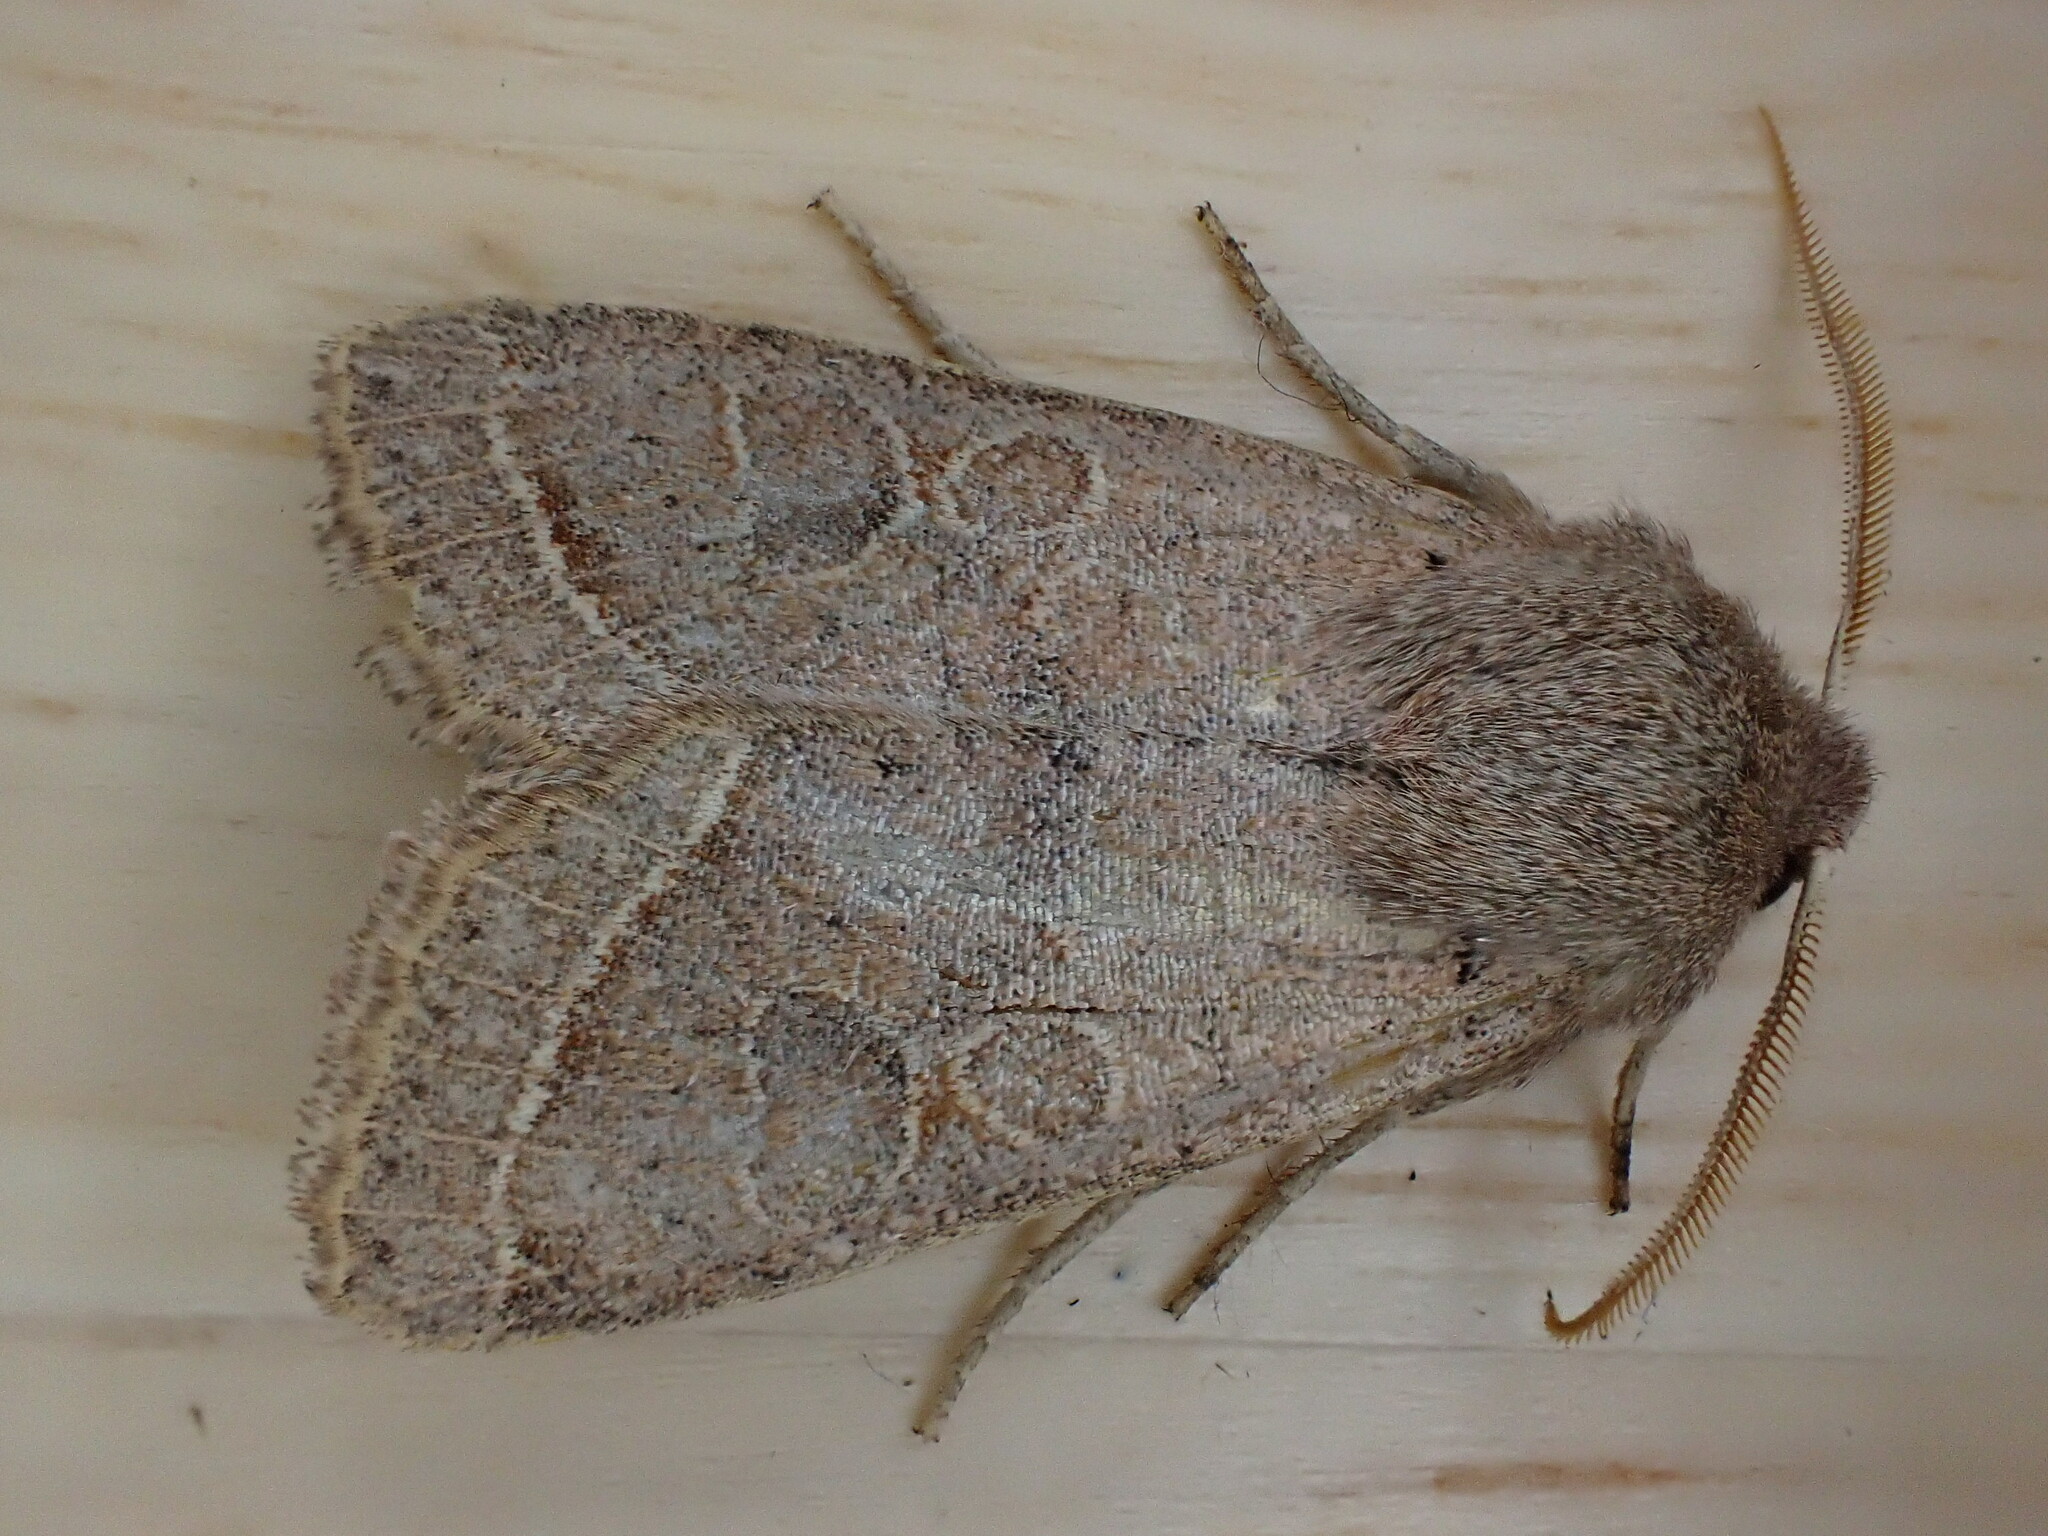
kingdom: Animalia
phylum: Arthropoda
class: Insecta
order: Lepidoptera
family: Noctuidae
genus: Orthosia
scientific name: Orthosia cerasi
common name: Common quaker
